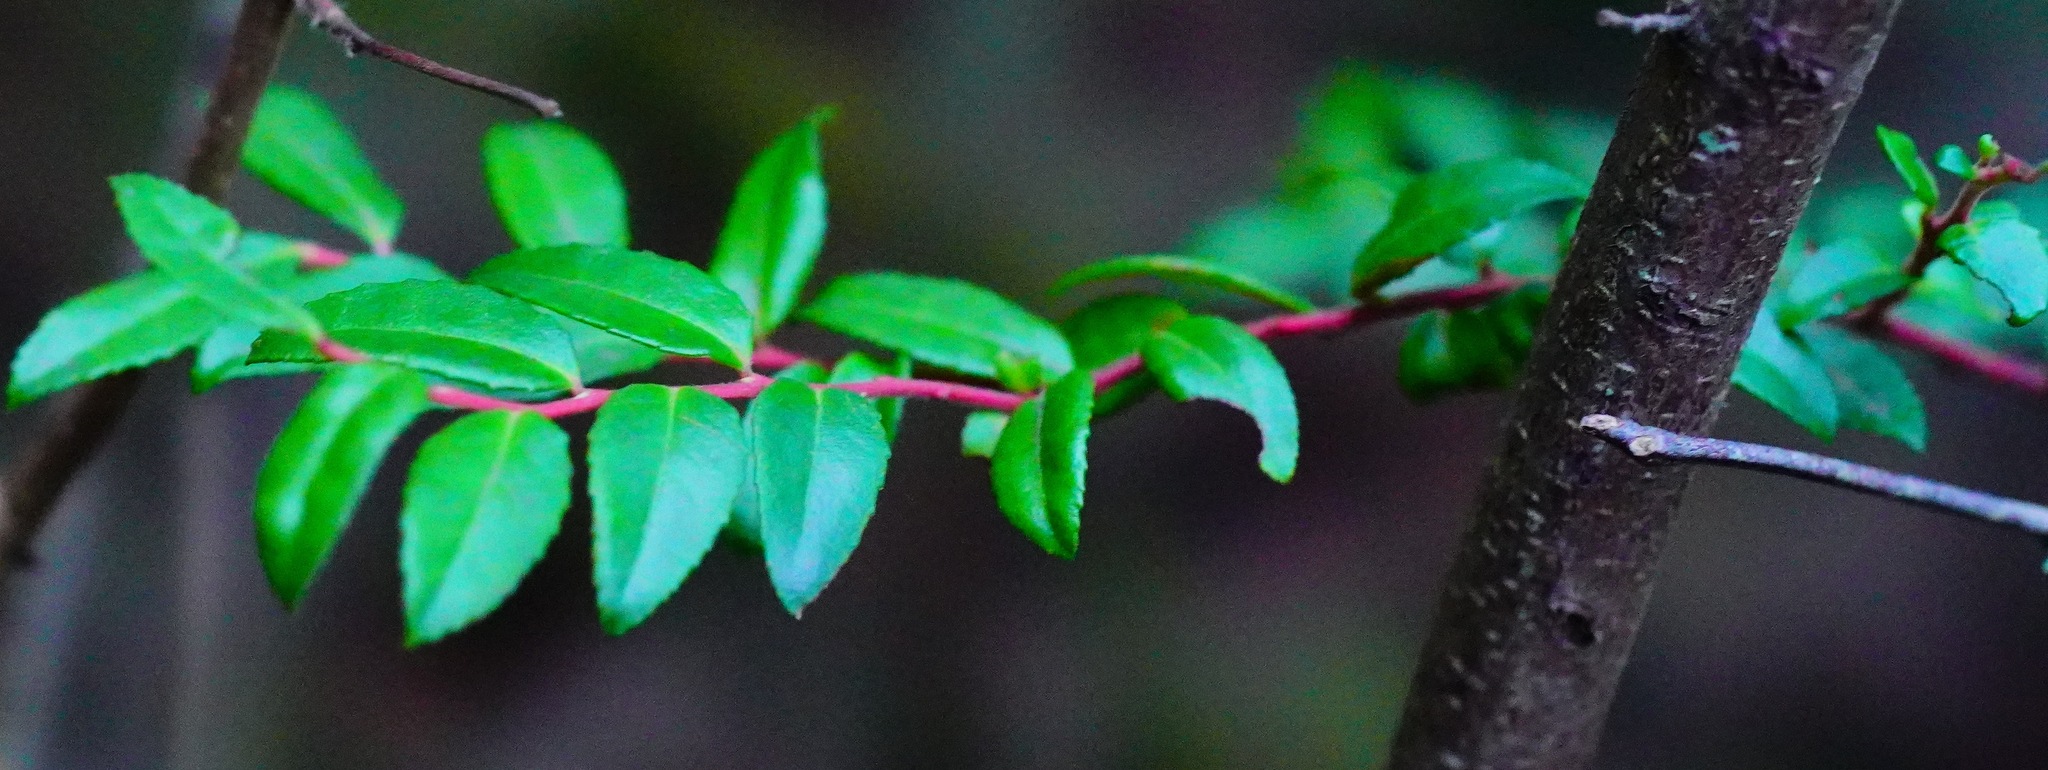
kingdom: Plantae
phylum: Tracheophyta
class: Magnoliopsida
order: Ericales
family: Ericaceae
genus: Vaccinium
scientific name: Vaccinium ovatum
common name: California-huckleberry
